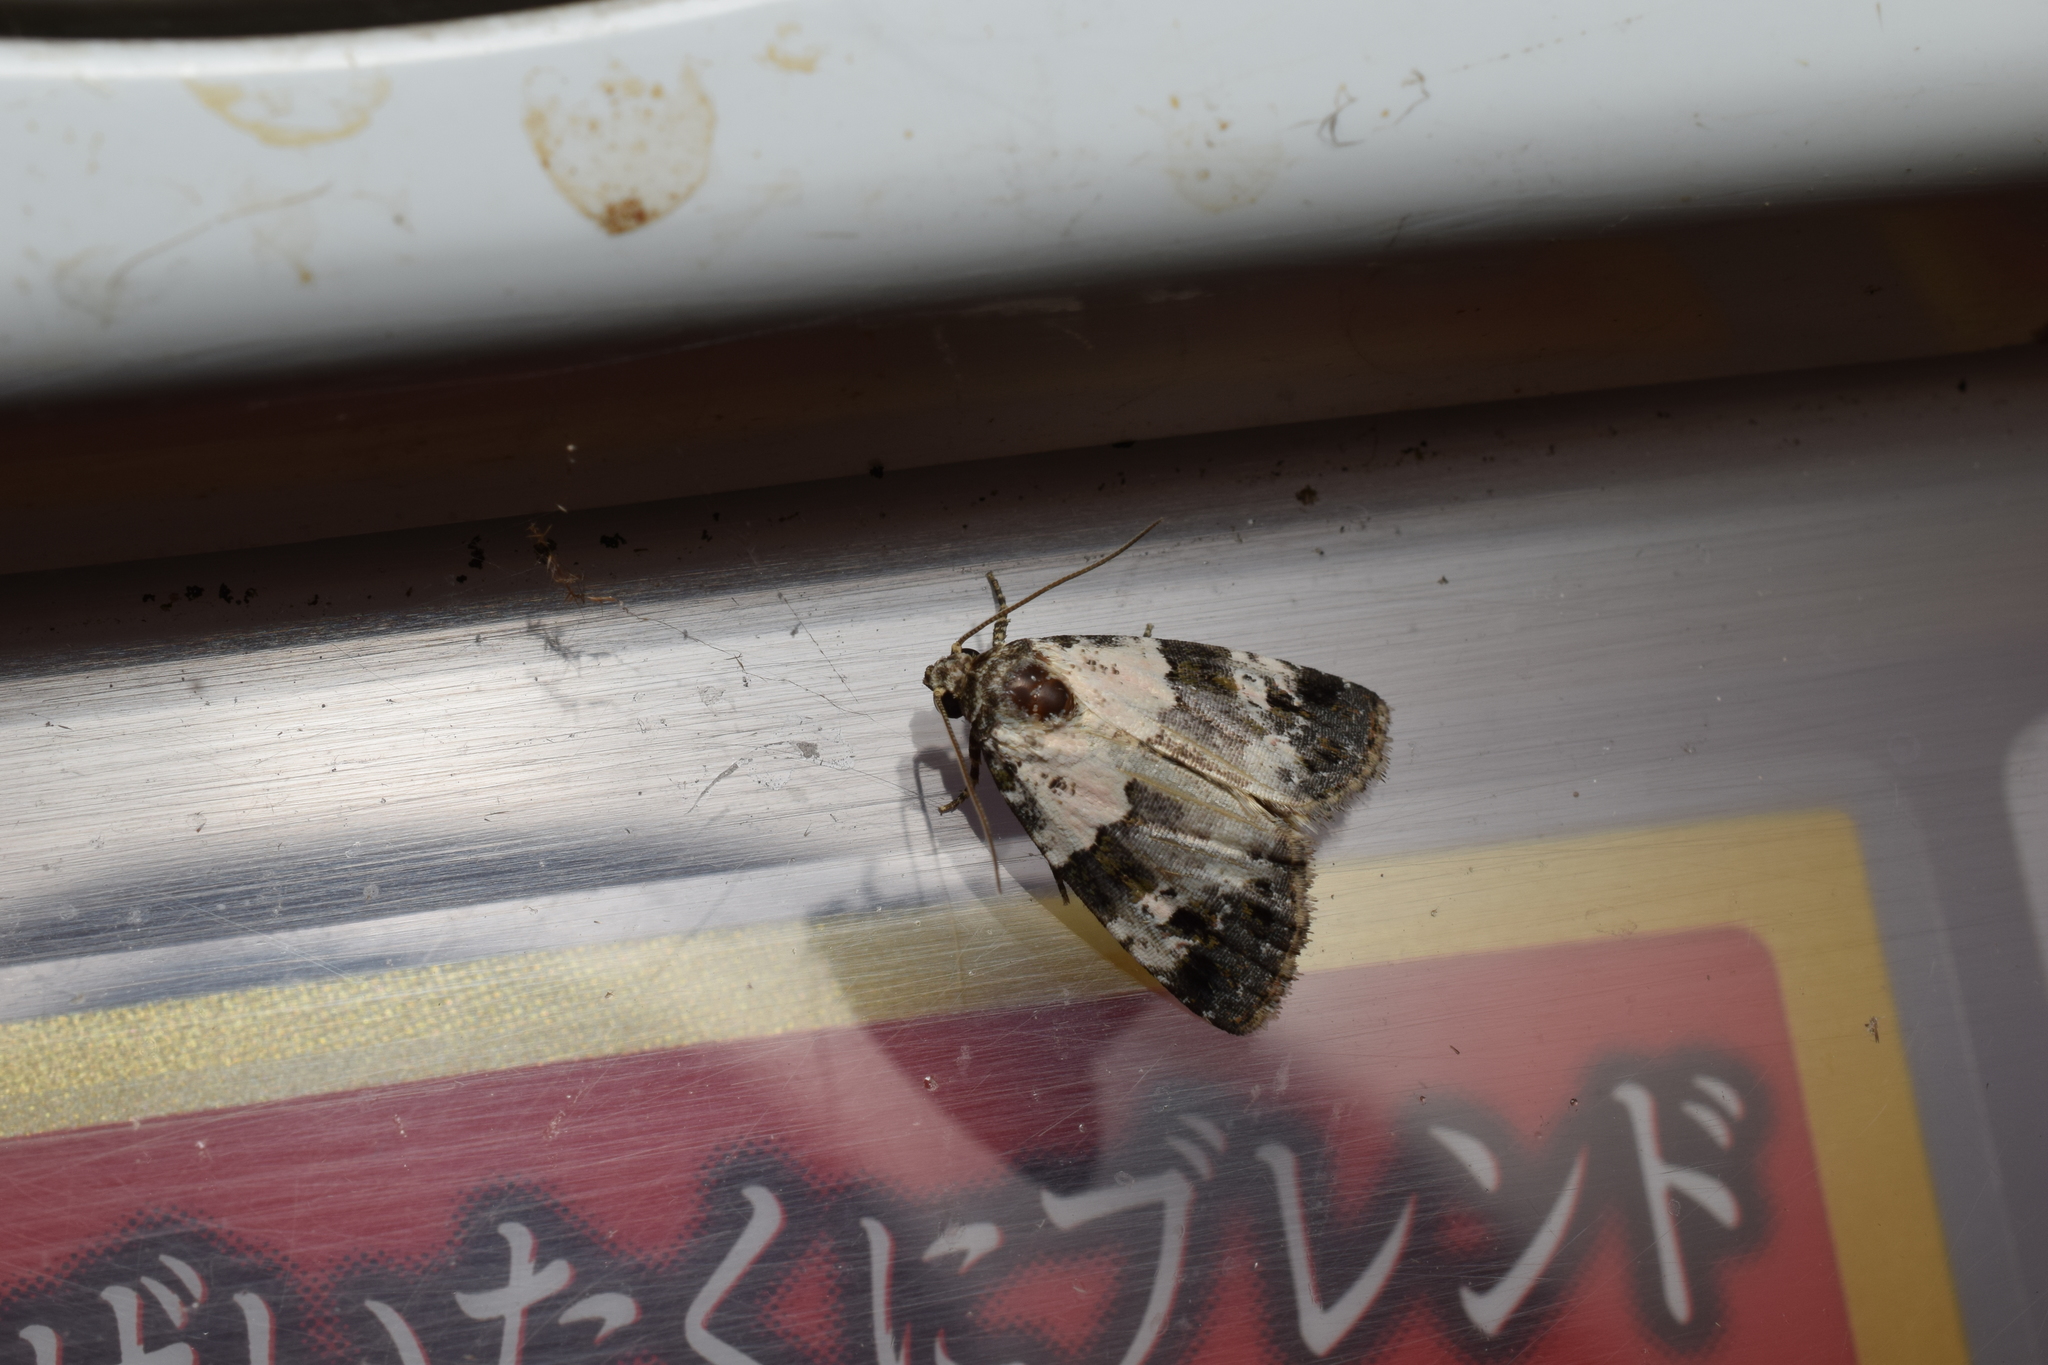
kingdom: Animalia
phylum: Arthropoda
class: Insecta
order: Lepidoptera
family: Noctuidae
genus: Maliattha
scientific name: Maliattha signifera
